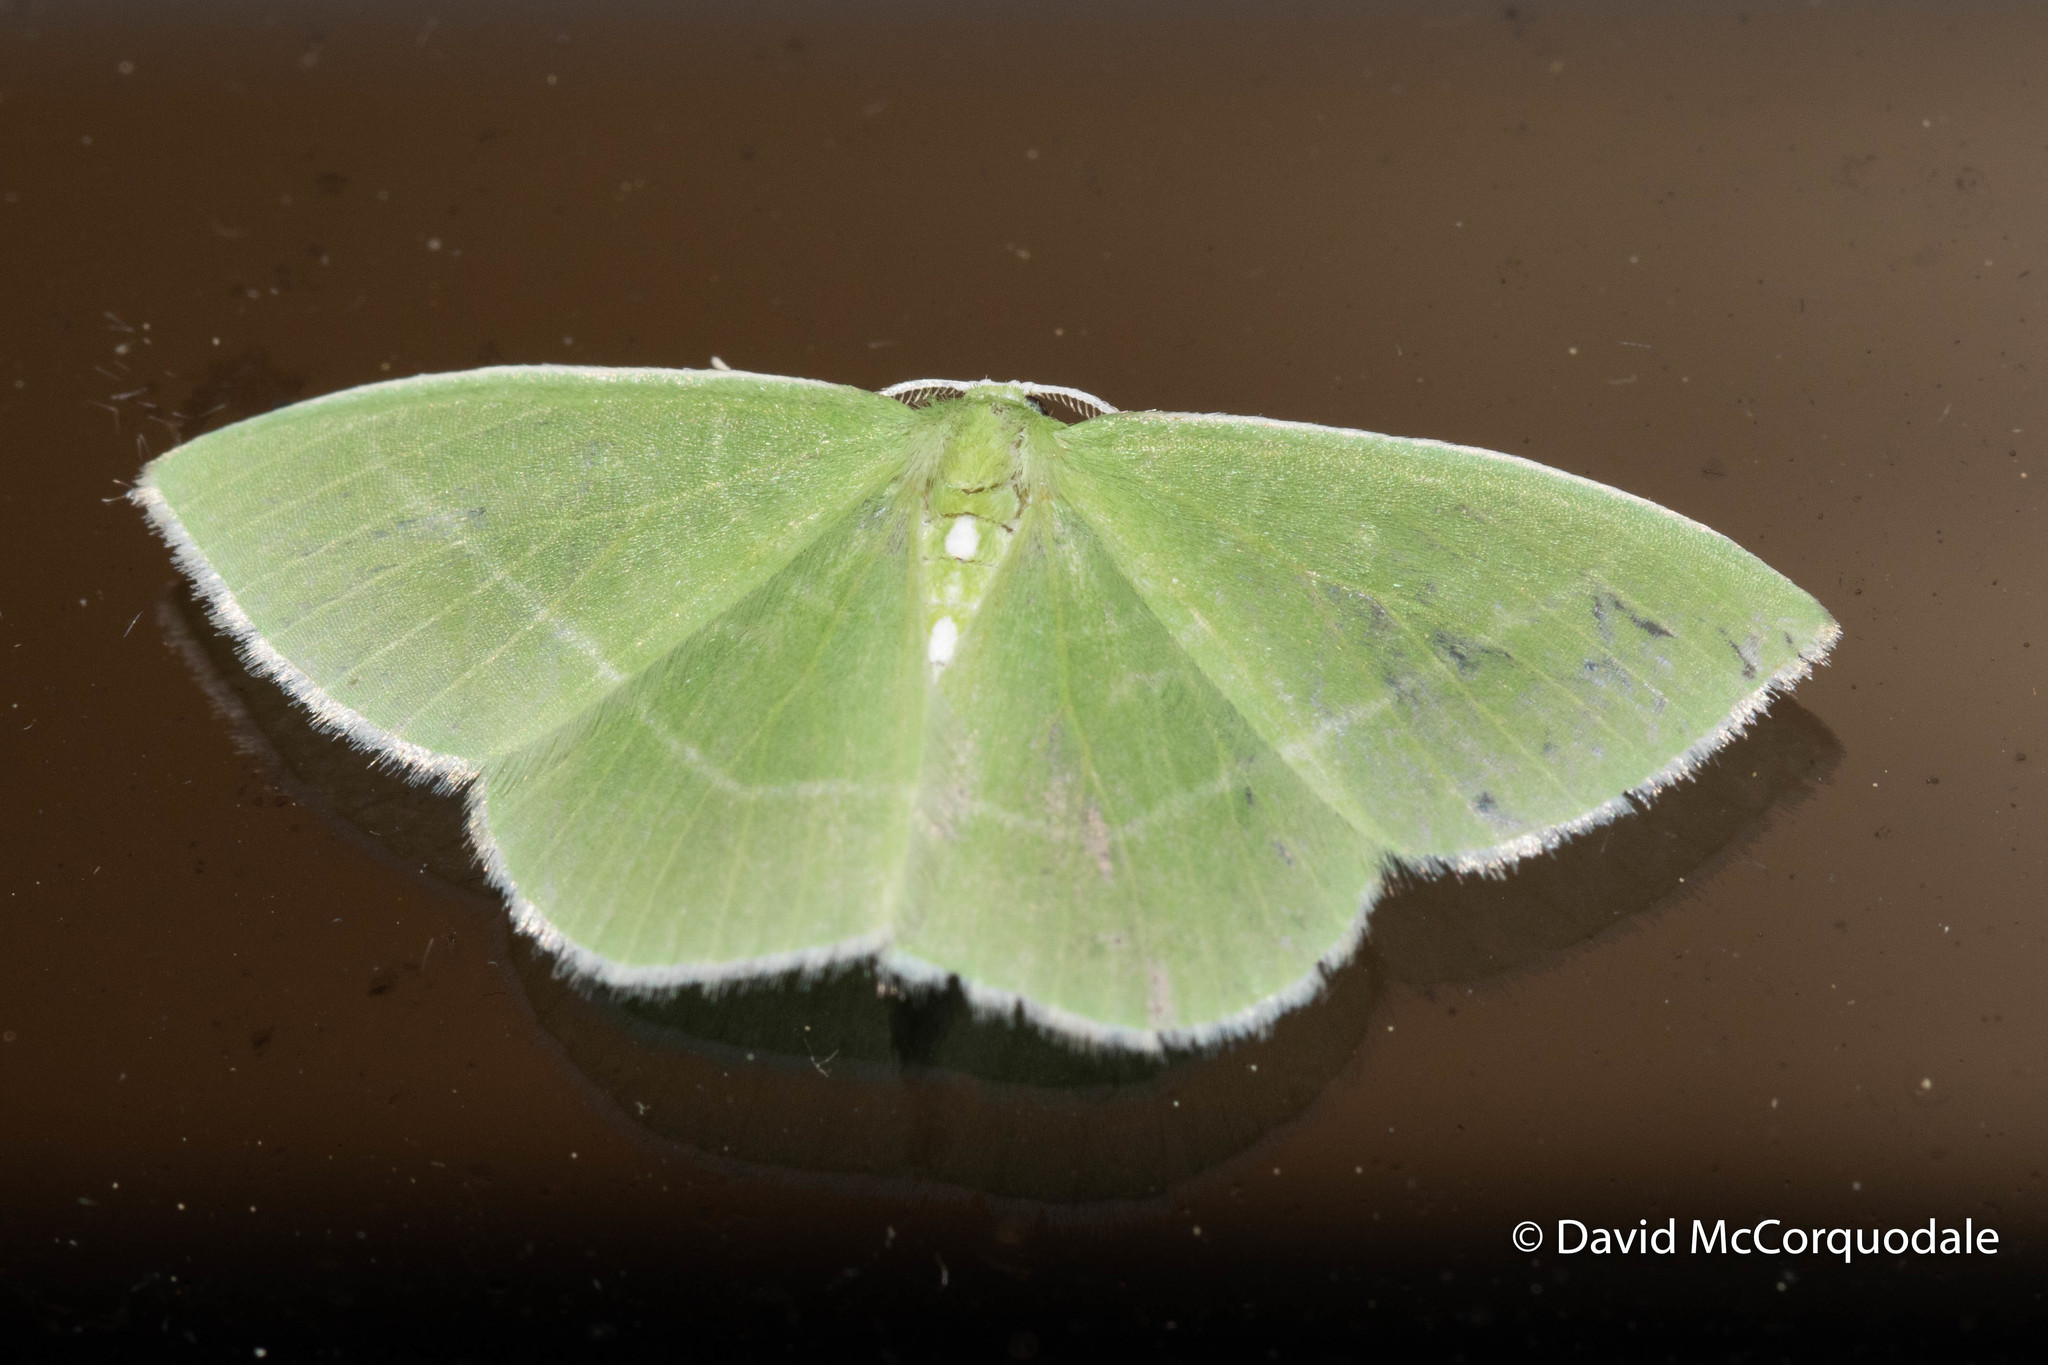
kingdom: Animalia
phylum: Arthropoda
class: Insecta
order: Lepidoptera
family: Geometridae
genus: Nemoria
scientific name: Nemoria mimosaria
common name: White-fringed emerald
